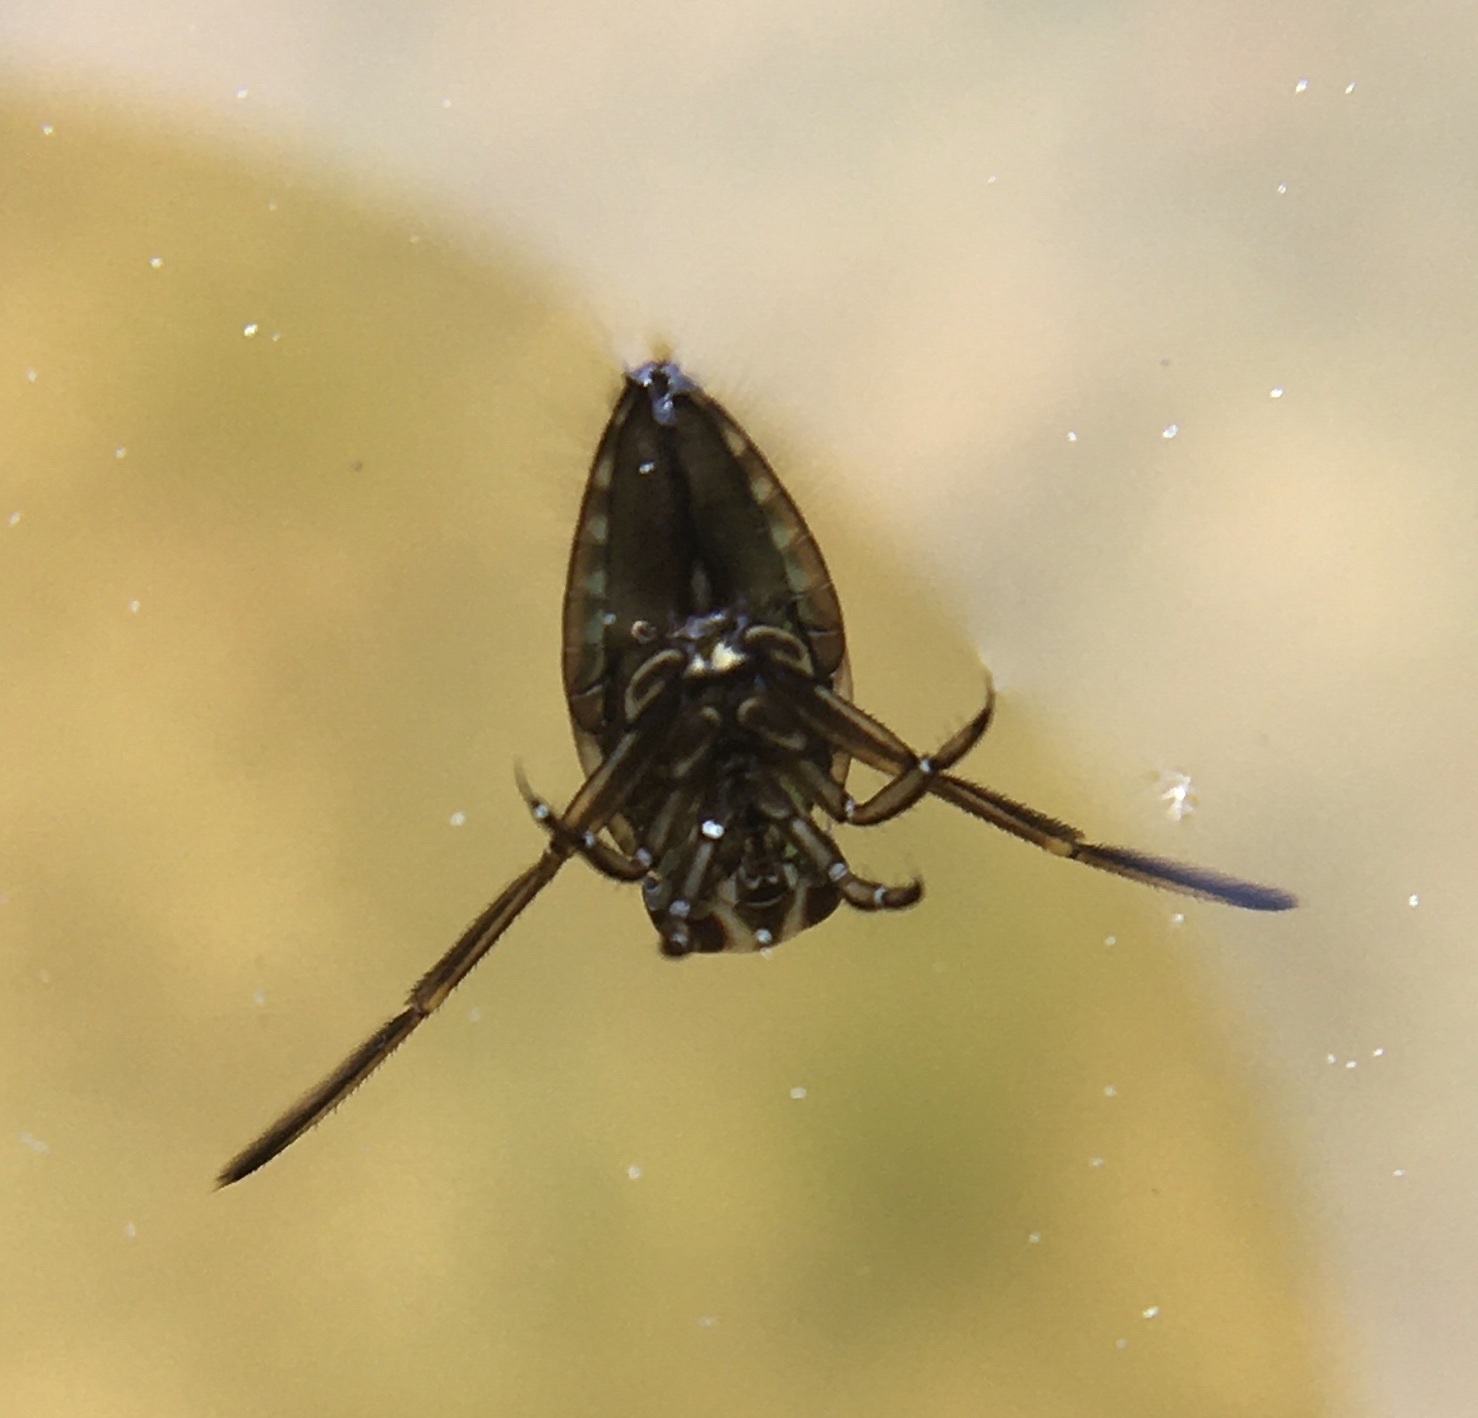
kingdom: Animalia
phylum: Arthropoda
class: Insecta
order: Hemiptera
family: Notonectidae
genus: Notonecta
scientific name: Notonecta
